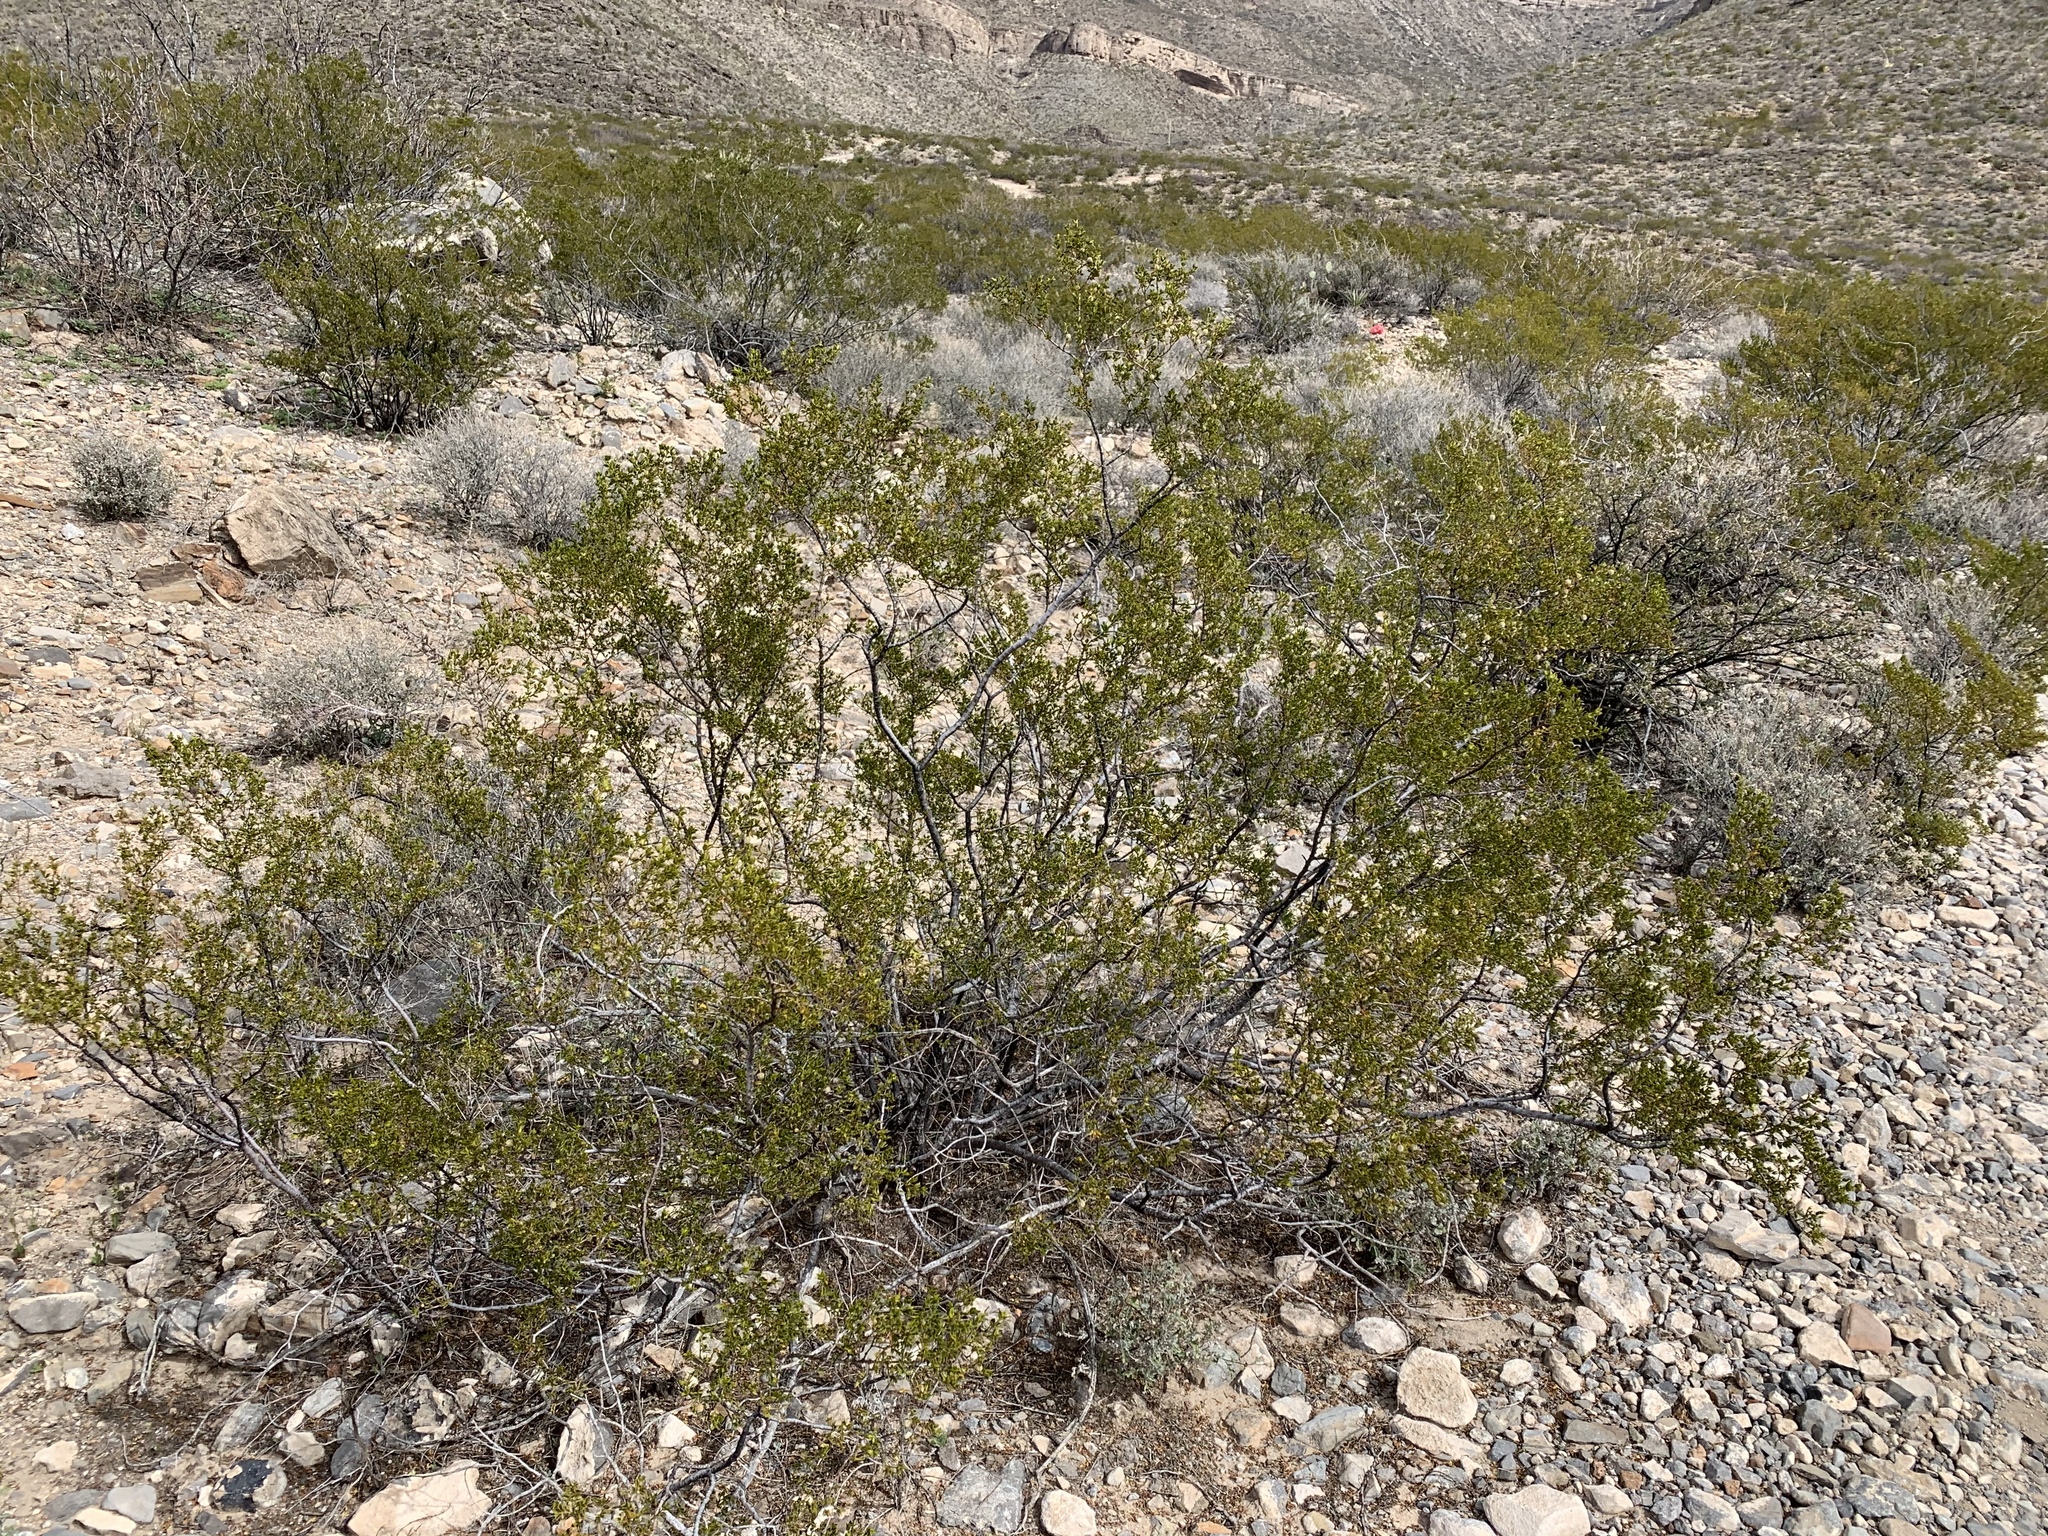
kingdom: Plantae
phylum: Tracheophyta
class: Magnoliopsida
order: Zygophyllales
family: Zygophyllaceae
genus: Larrea
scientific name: Larrea tridentata
